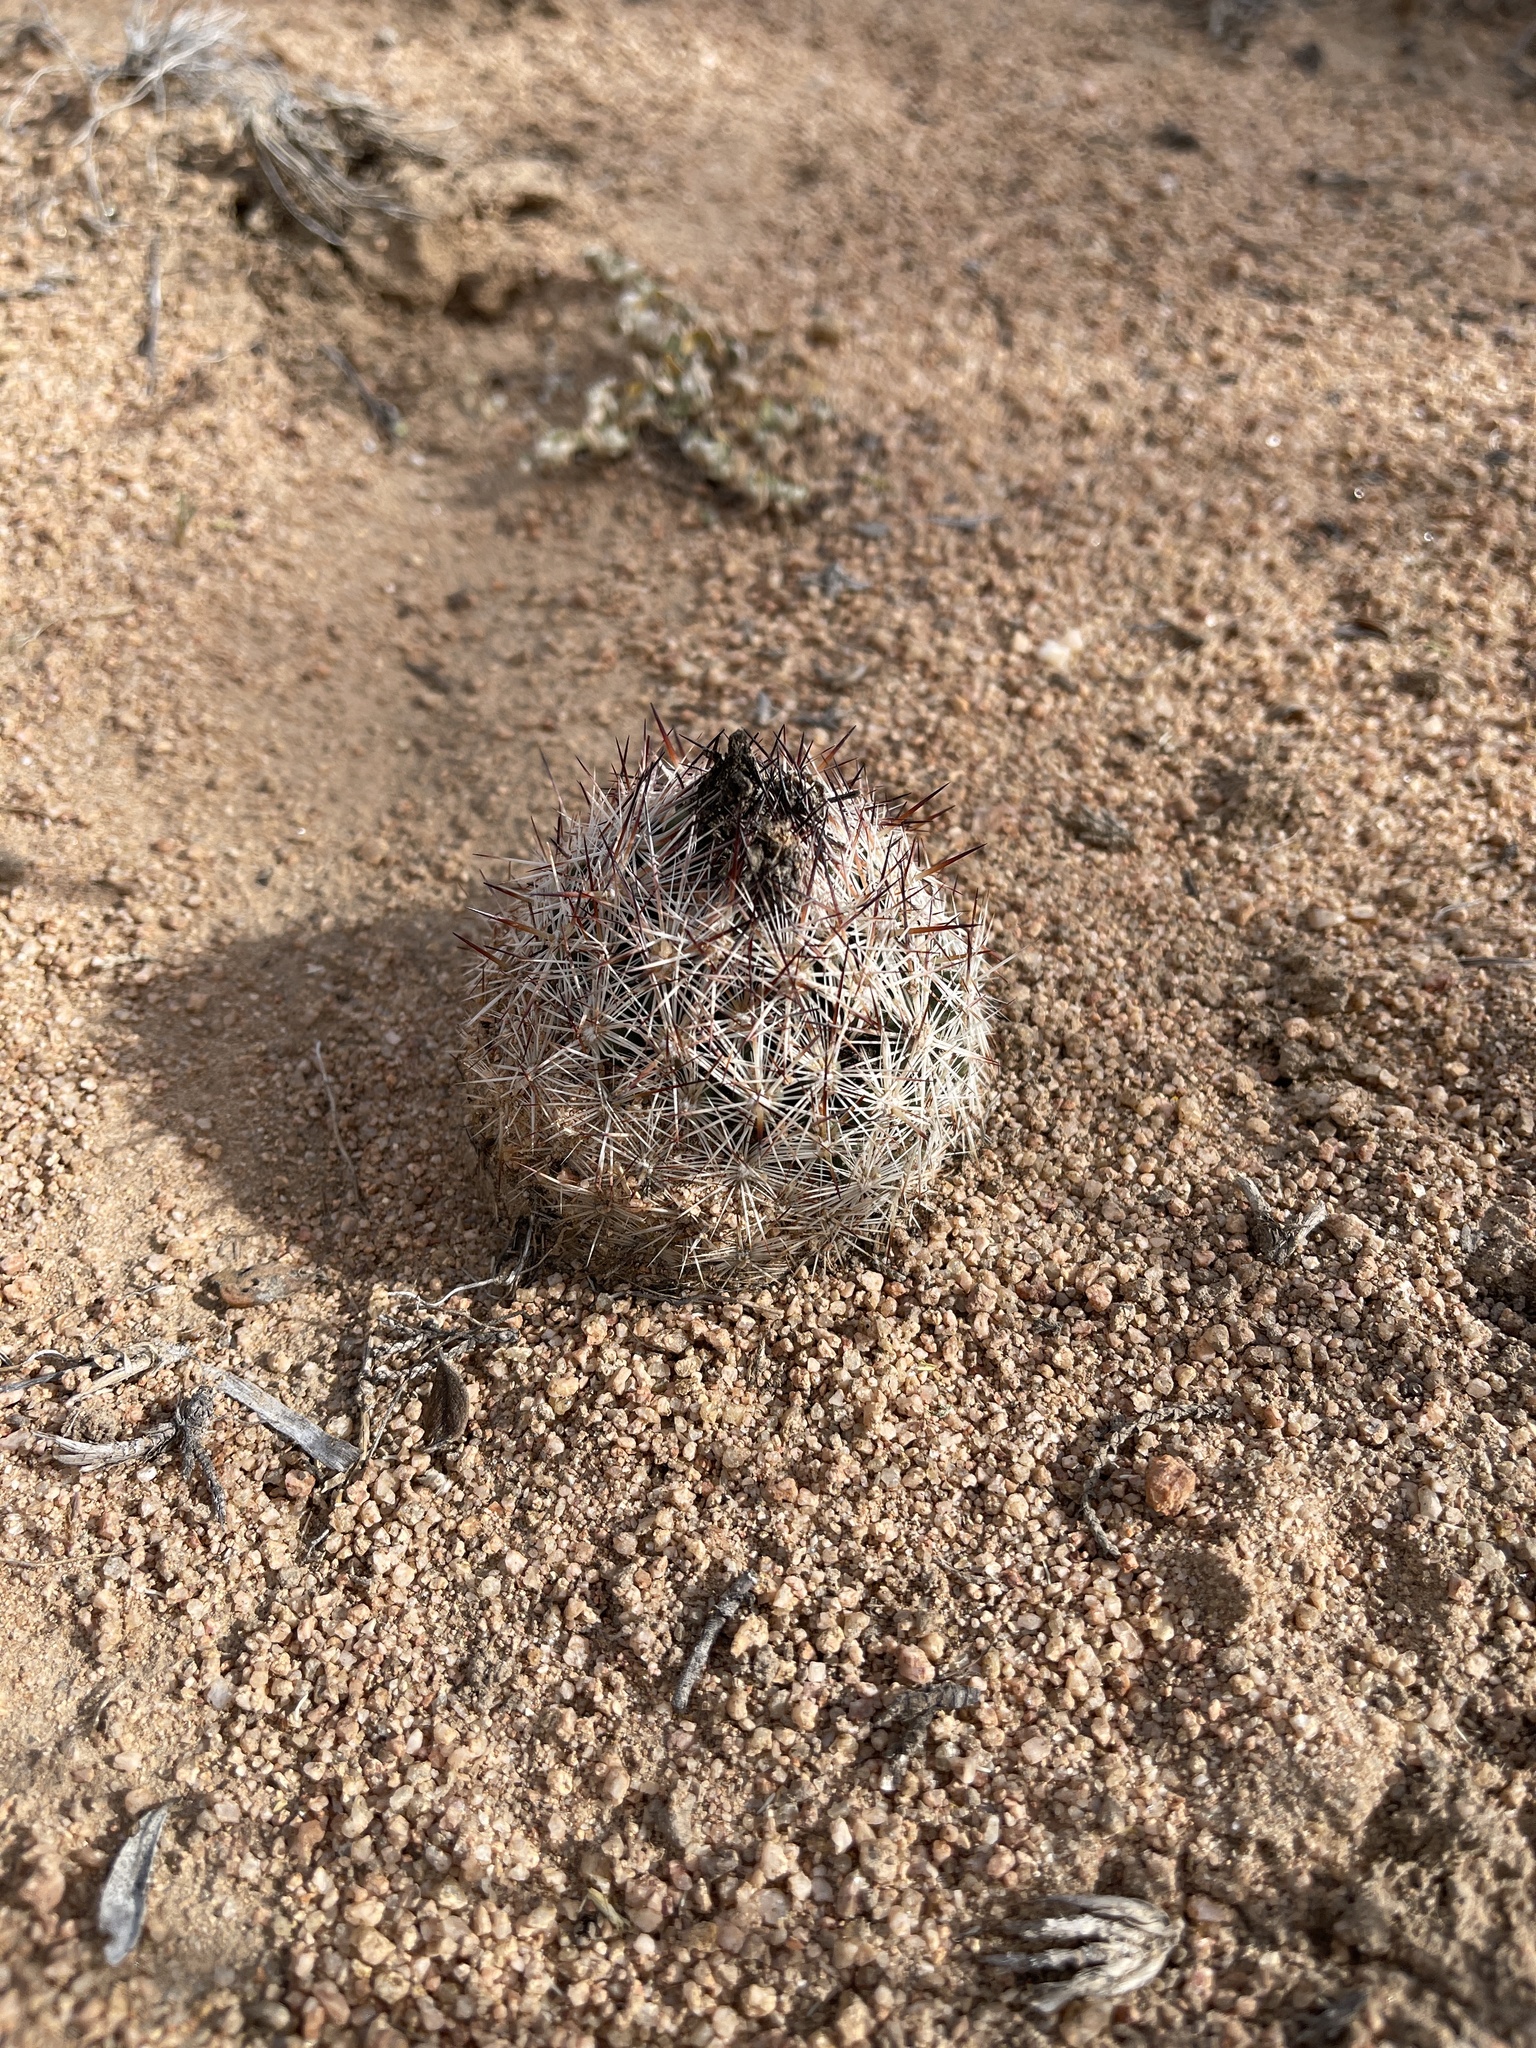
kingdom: Plantae
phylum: Tracheophyta
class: Magnoliopsida
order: Caryophyllales
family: Cactaceae
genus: Pelecyphora
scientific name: Pelecyphora vivipara
